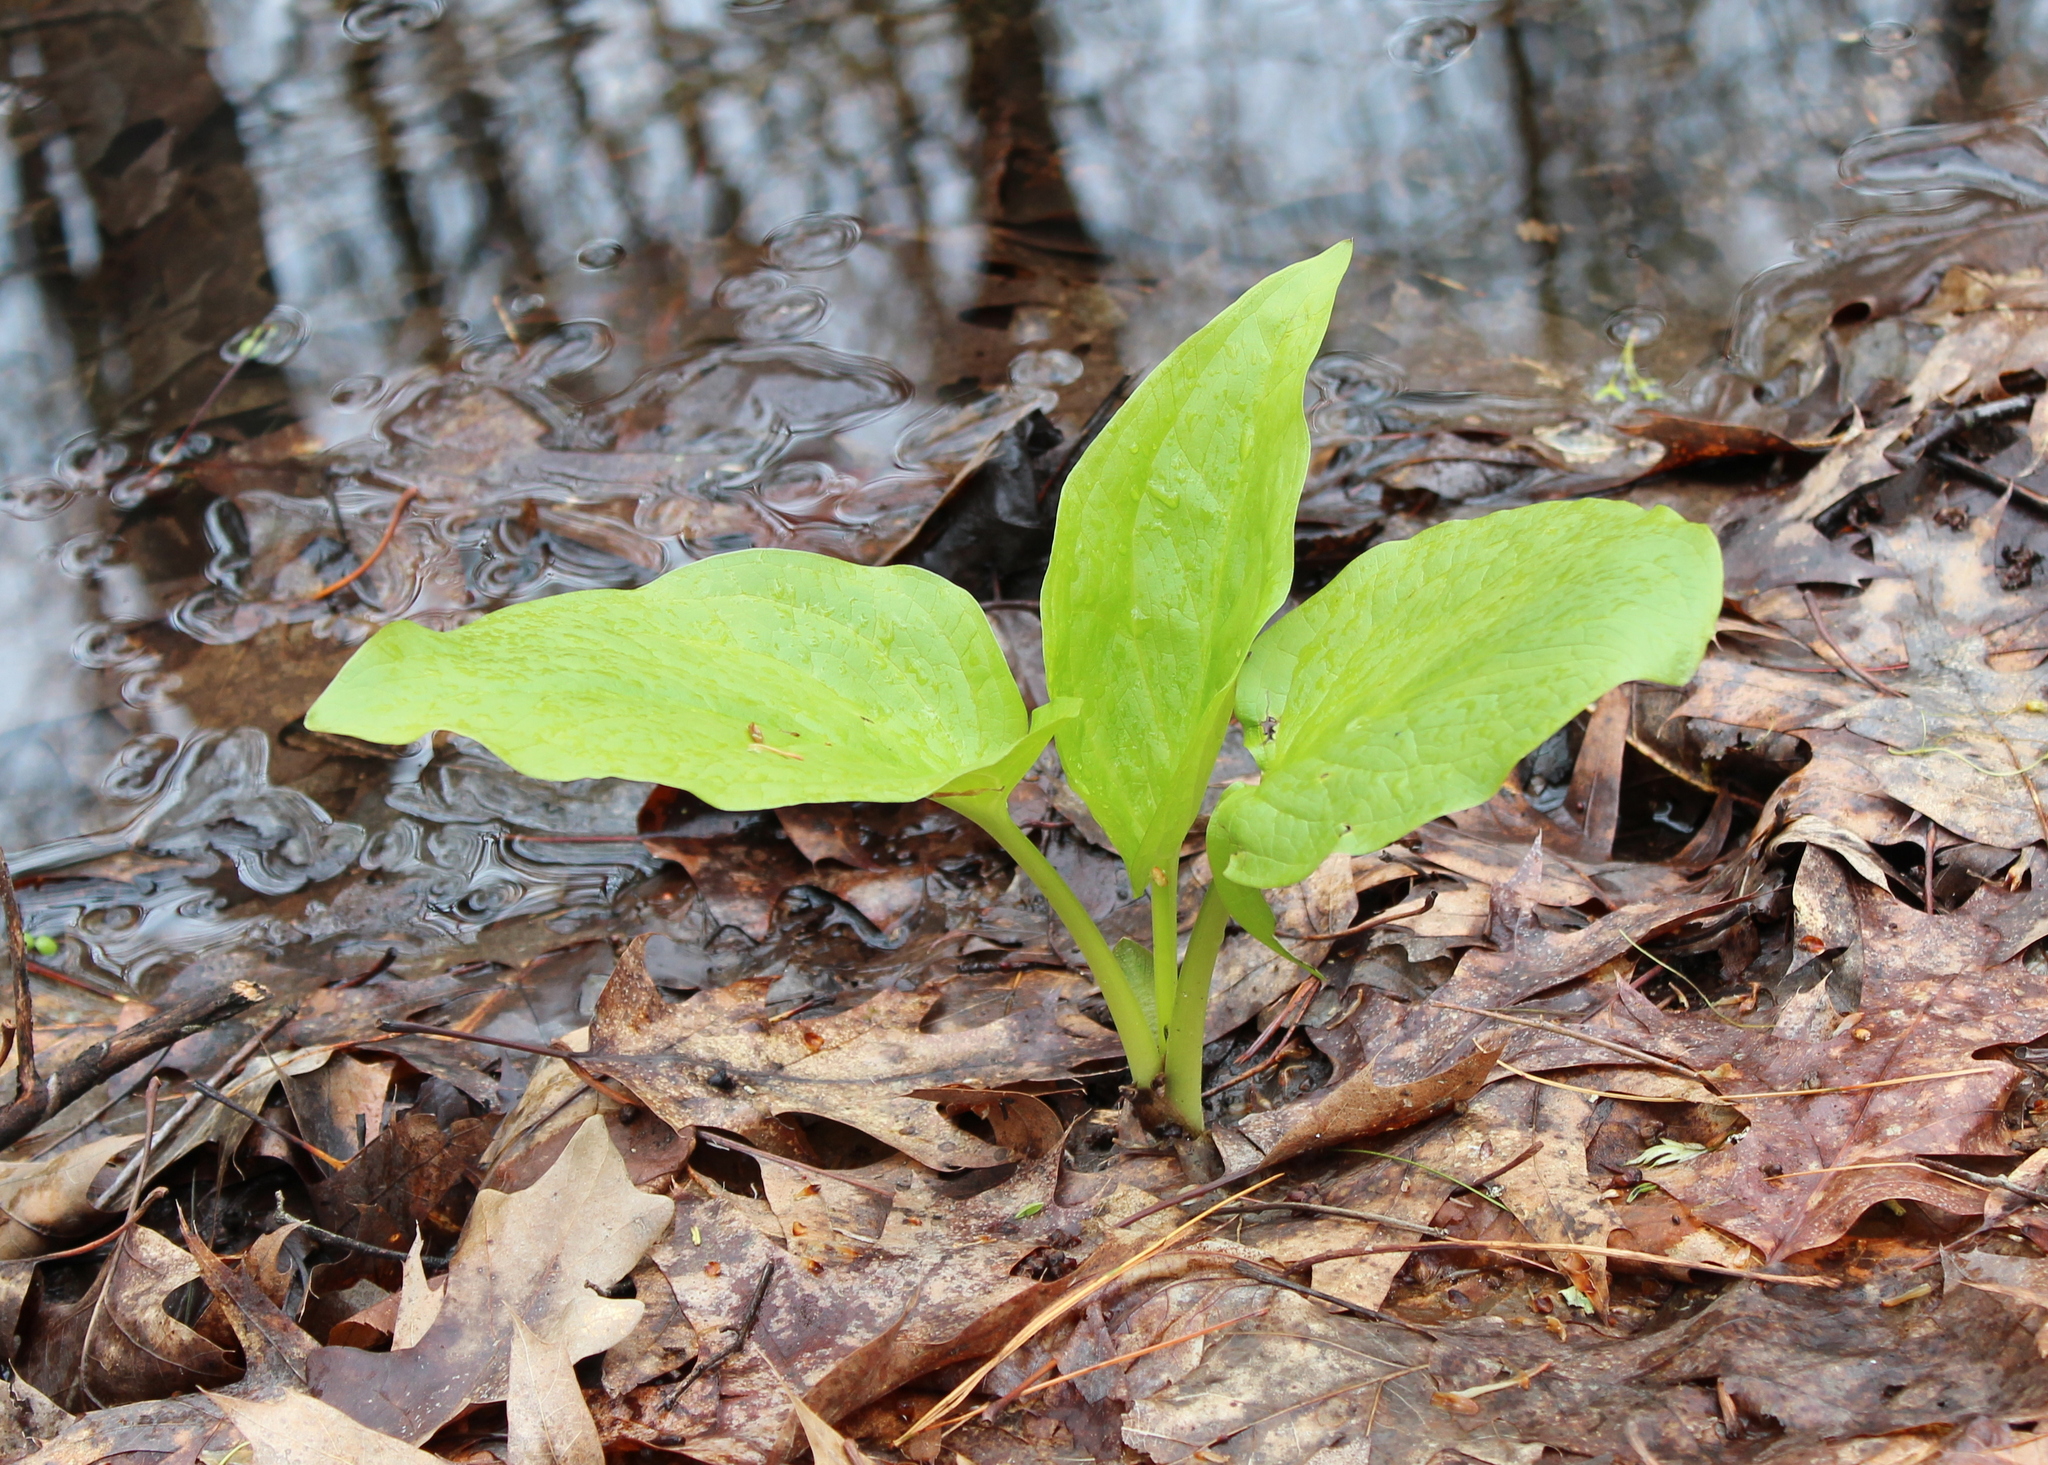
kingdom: Plantae
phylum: Tracheophyta
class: Liliopsida
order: Alismatales
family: Araceae
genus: Symplocarpus
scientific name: Symplocarpus foetidus
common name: Eastern skunk cabbage
